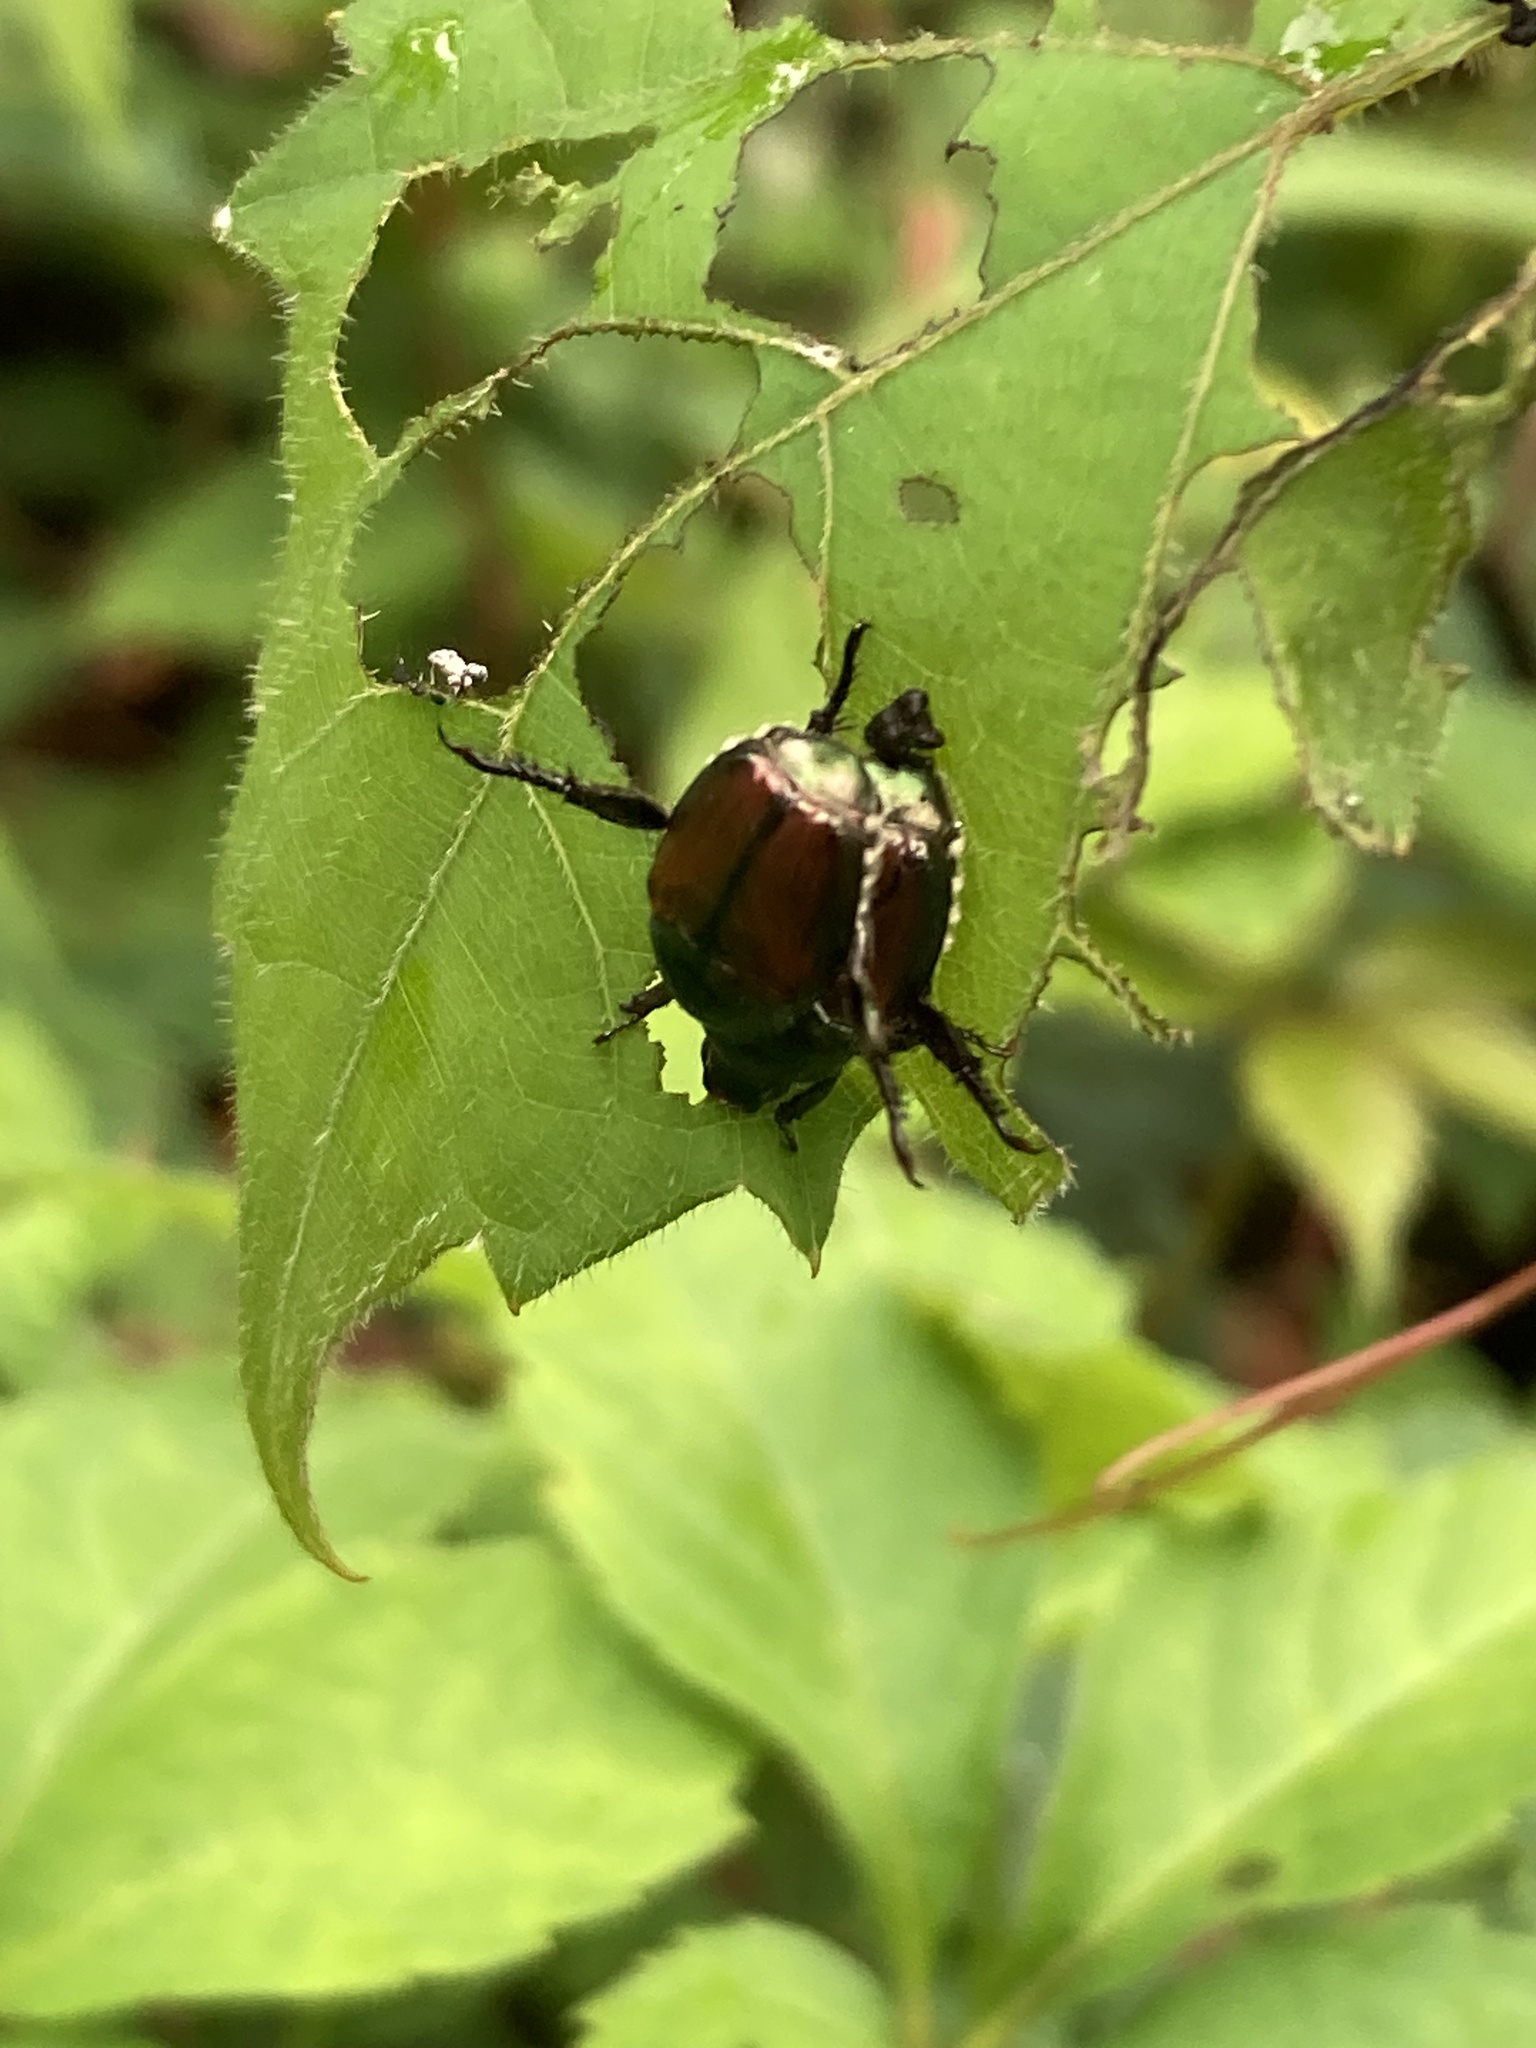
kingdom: Animalia
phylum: Arthropoda
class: Insecta
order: Coleoptera
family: Scarabaeidae
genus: Popillia
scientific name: Popillia japonica
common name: Japanese beetle
